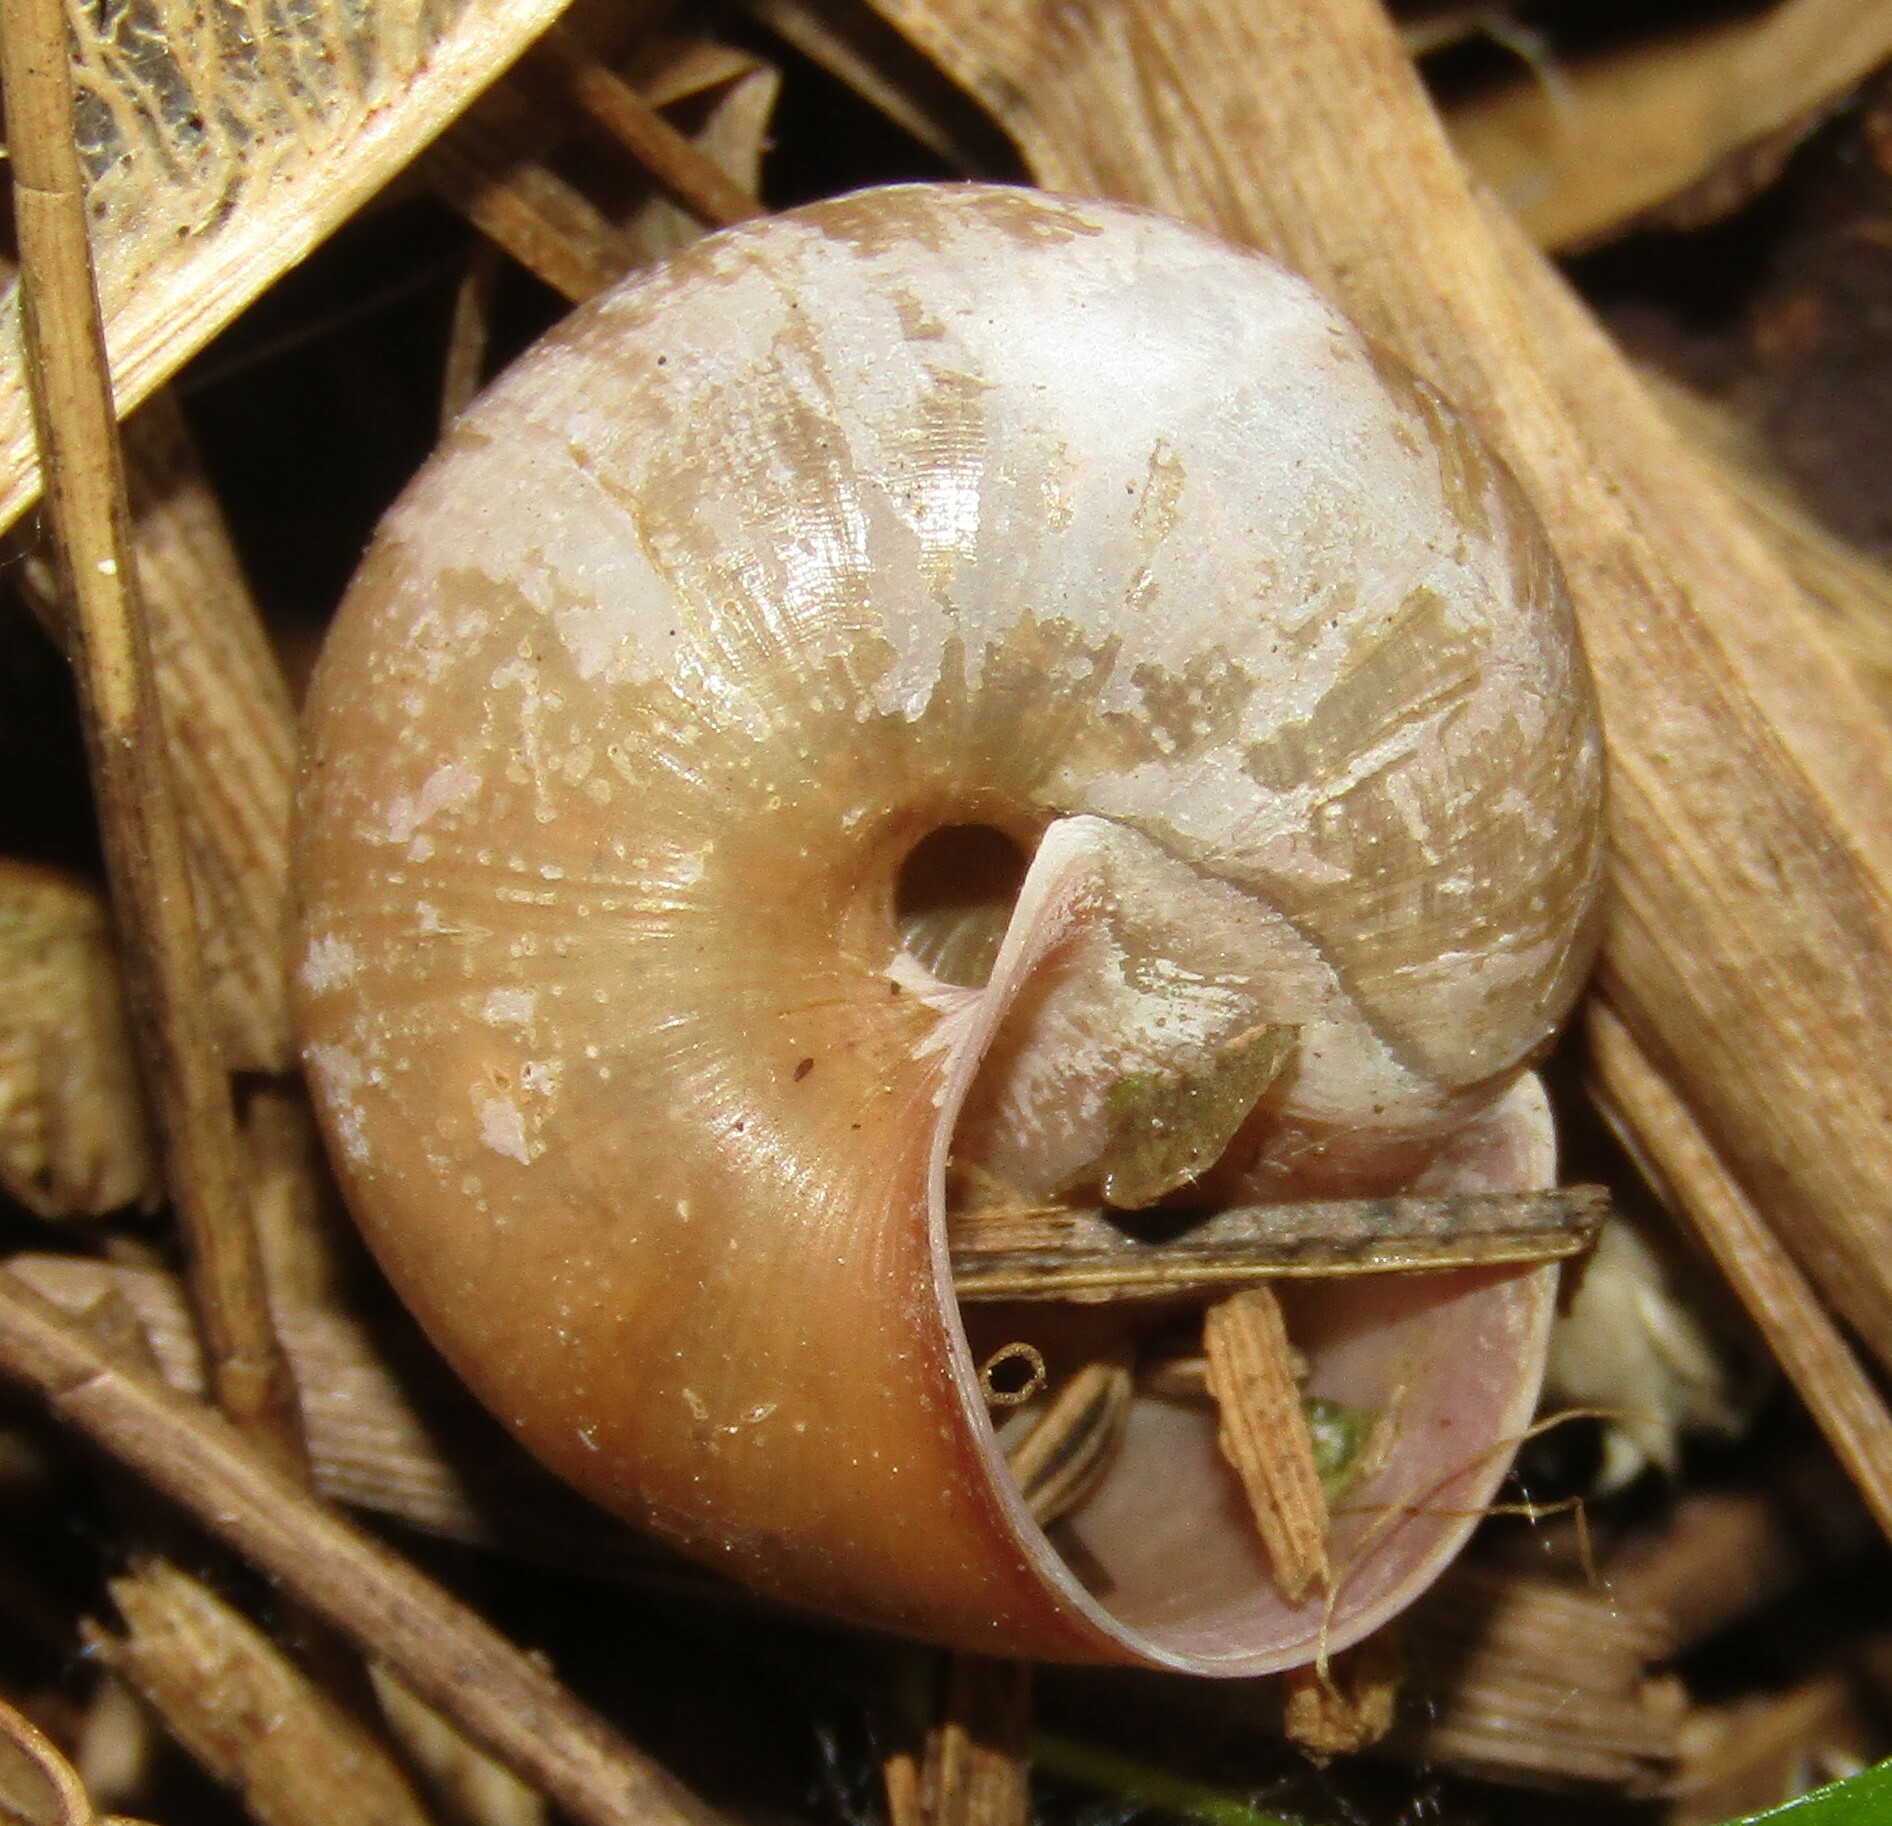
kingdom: Animalia
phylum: Mollusca
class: Gastropoda
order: Stylommatophora
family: Camaenidae
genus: Fruticicola
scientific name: Fruticicola fruticum
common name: Bush snail
